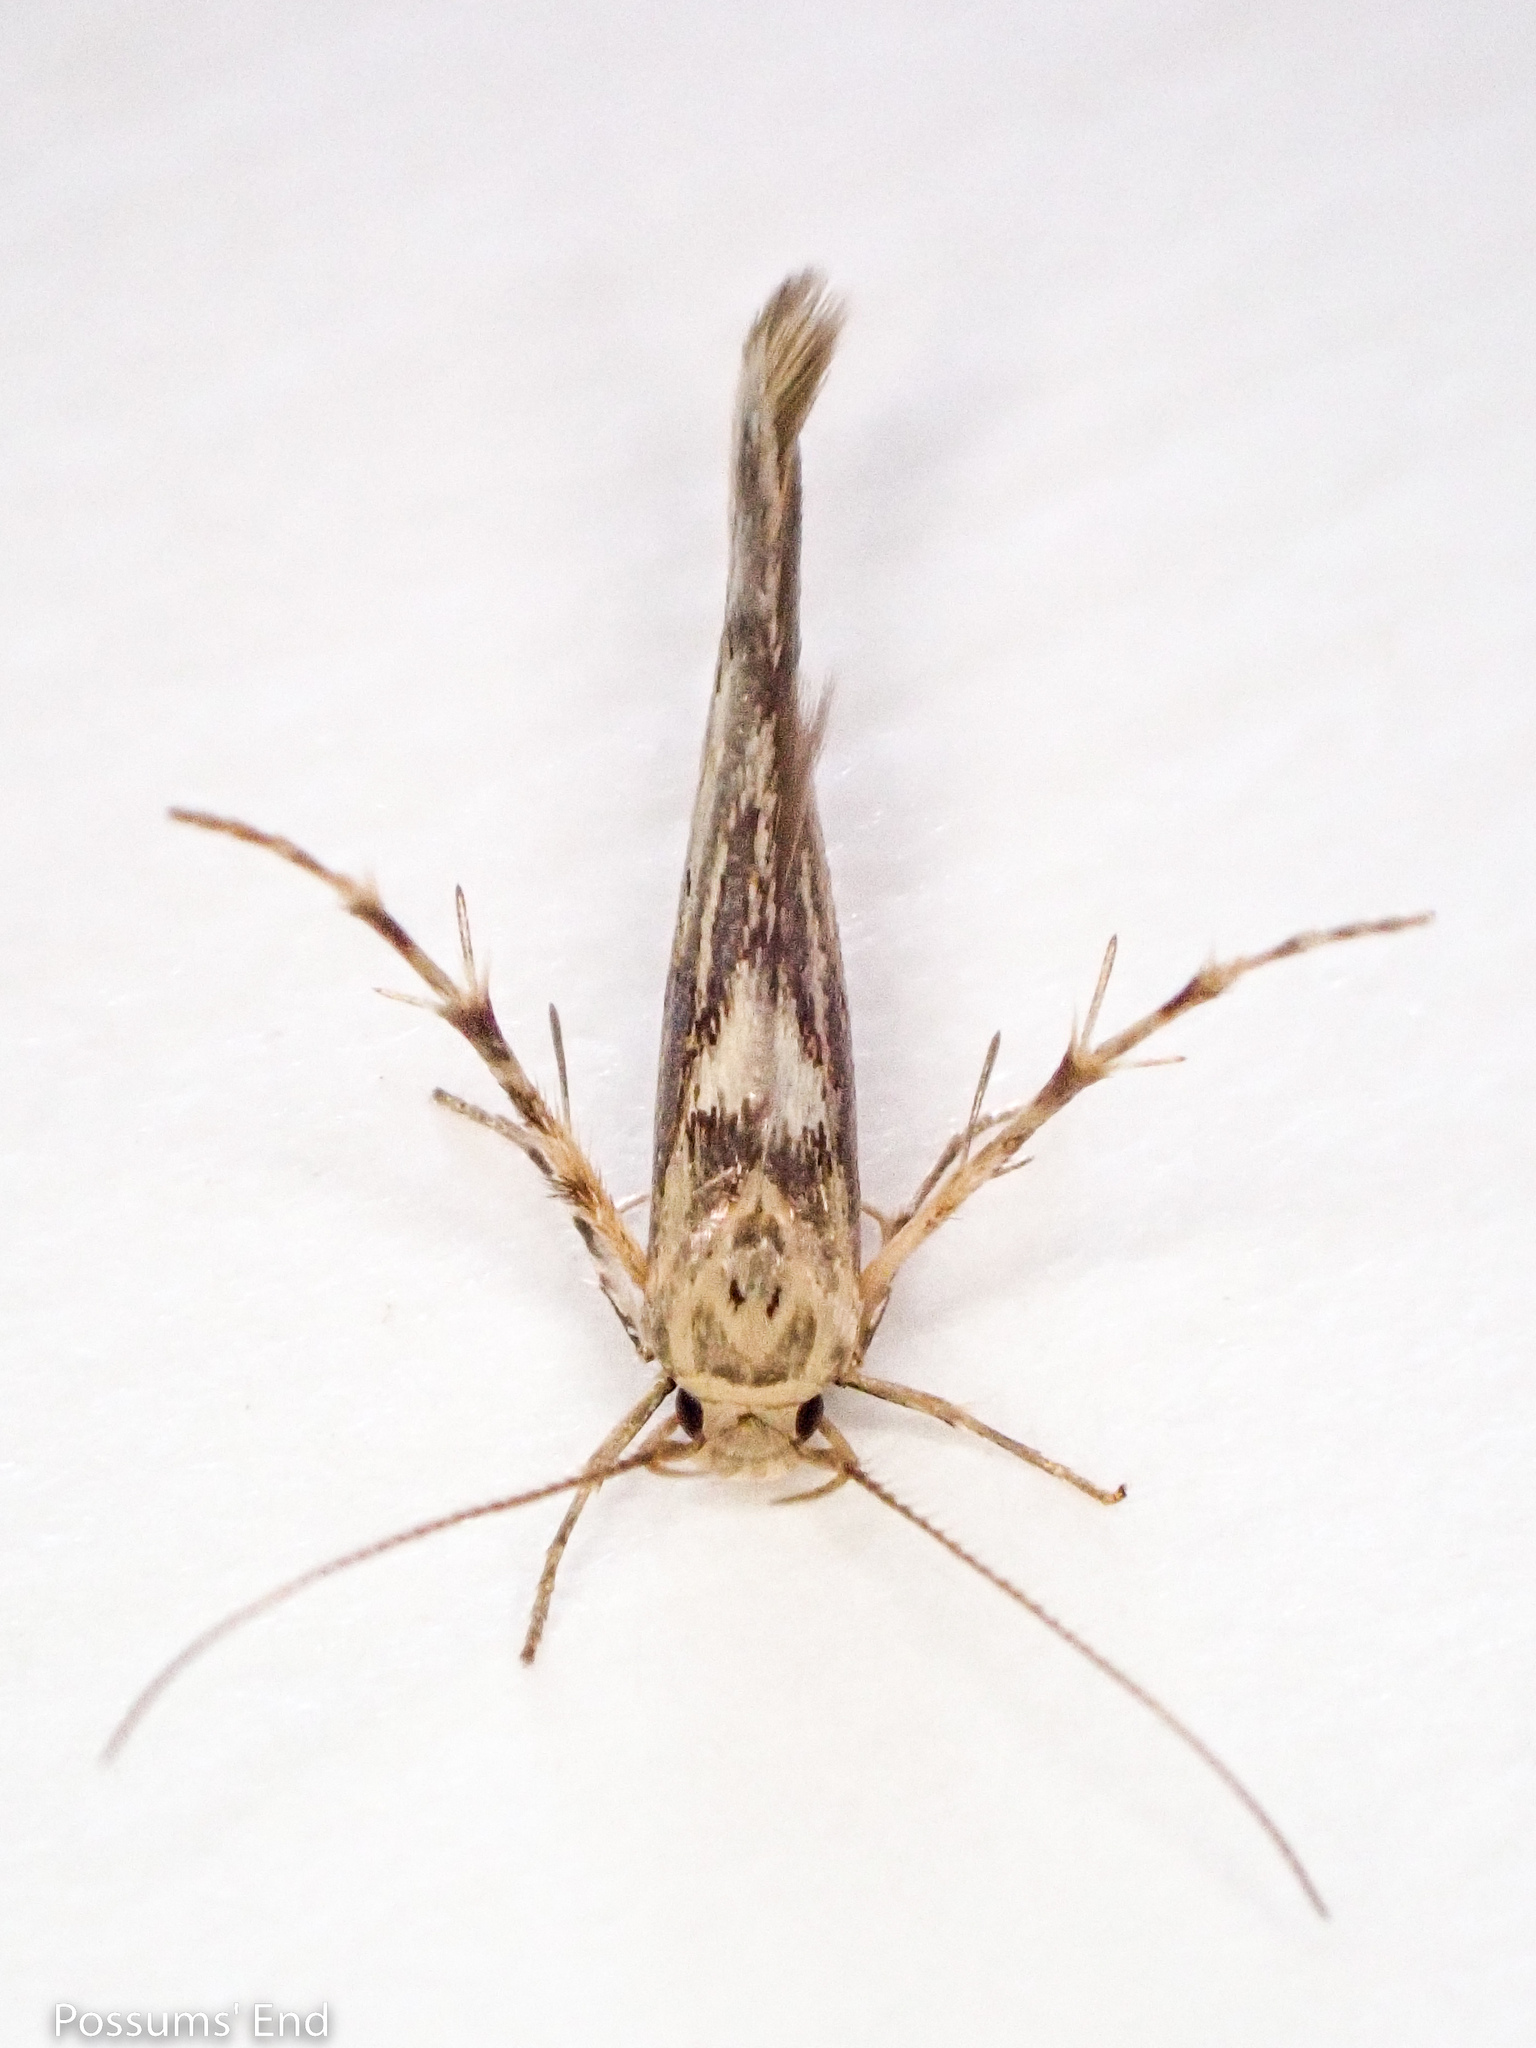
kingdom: Animalia
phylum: Arthropoda
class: Insecta
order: Lepidoptera
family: Stathmopodidae
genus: Stathmopoda
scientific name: Stathmopoda plumbiflua
